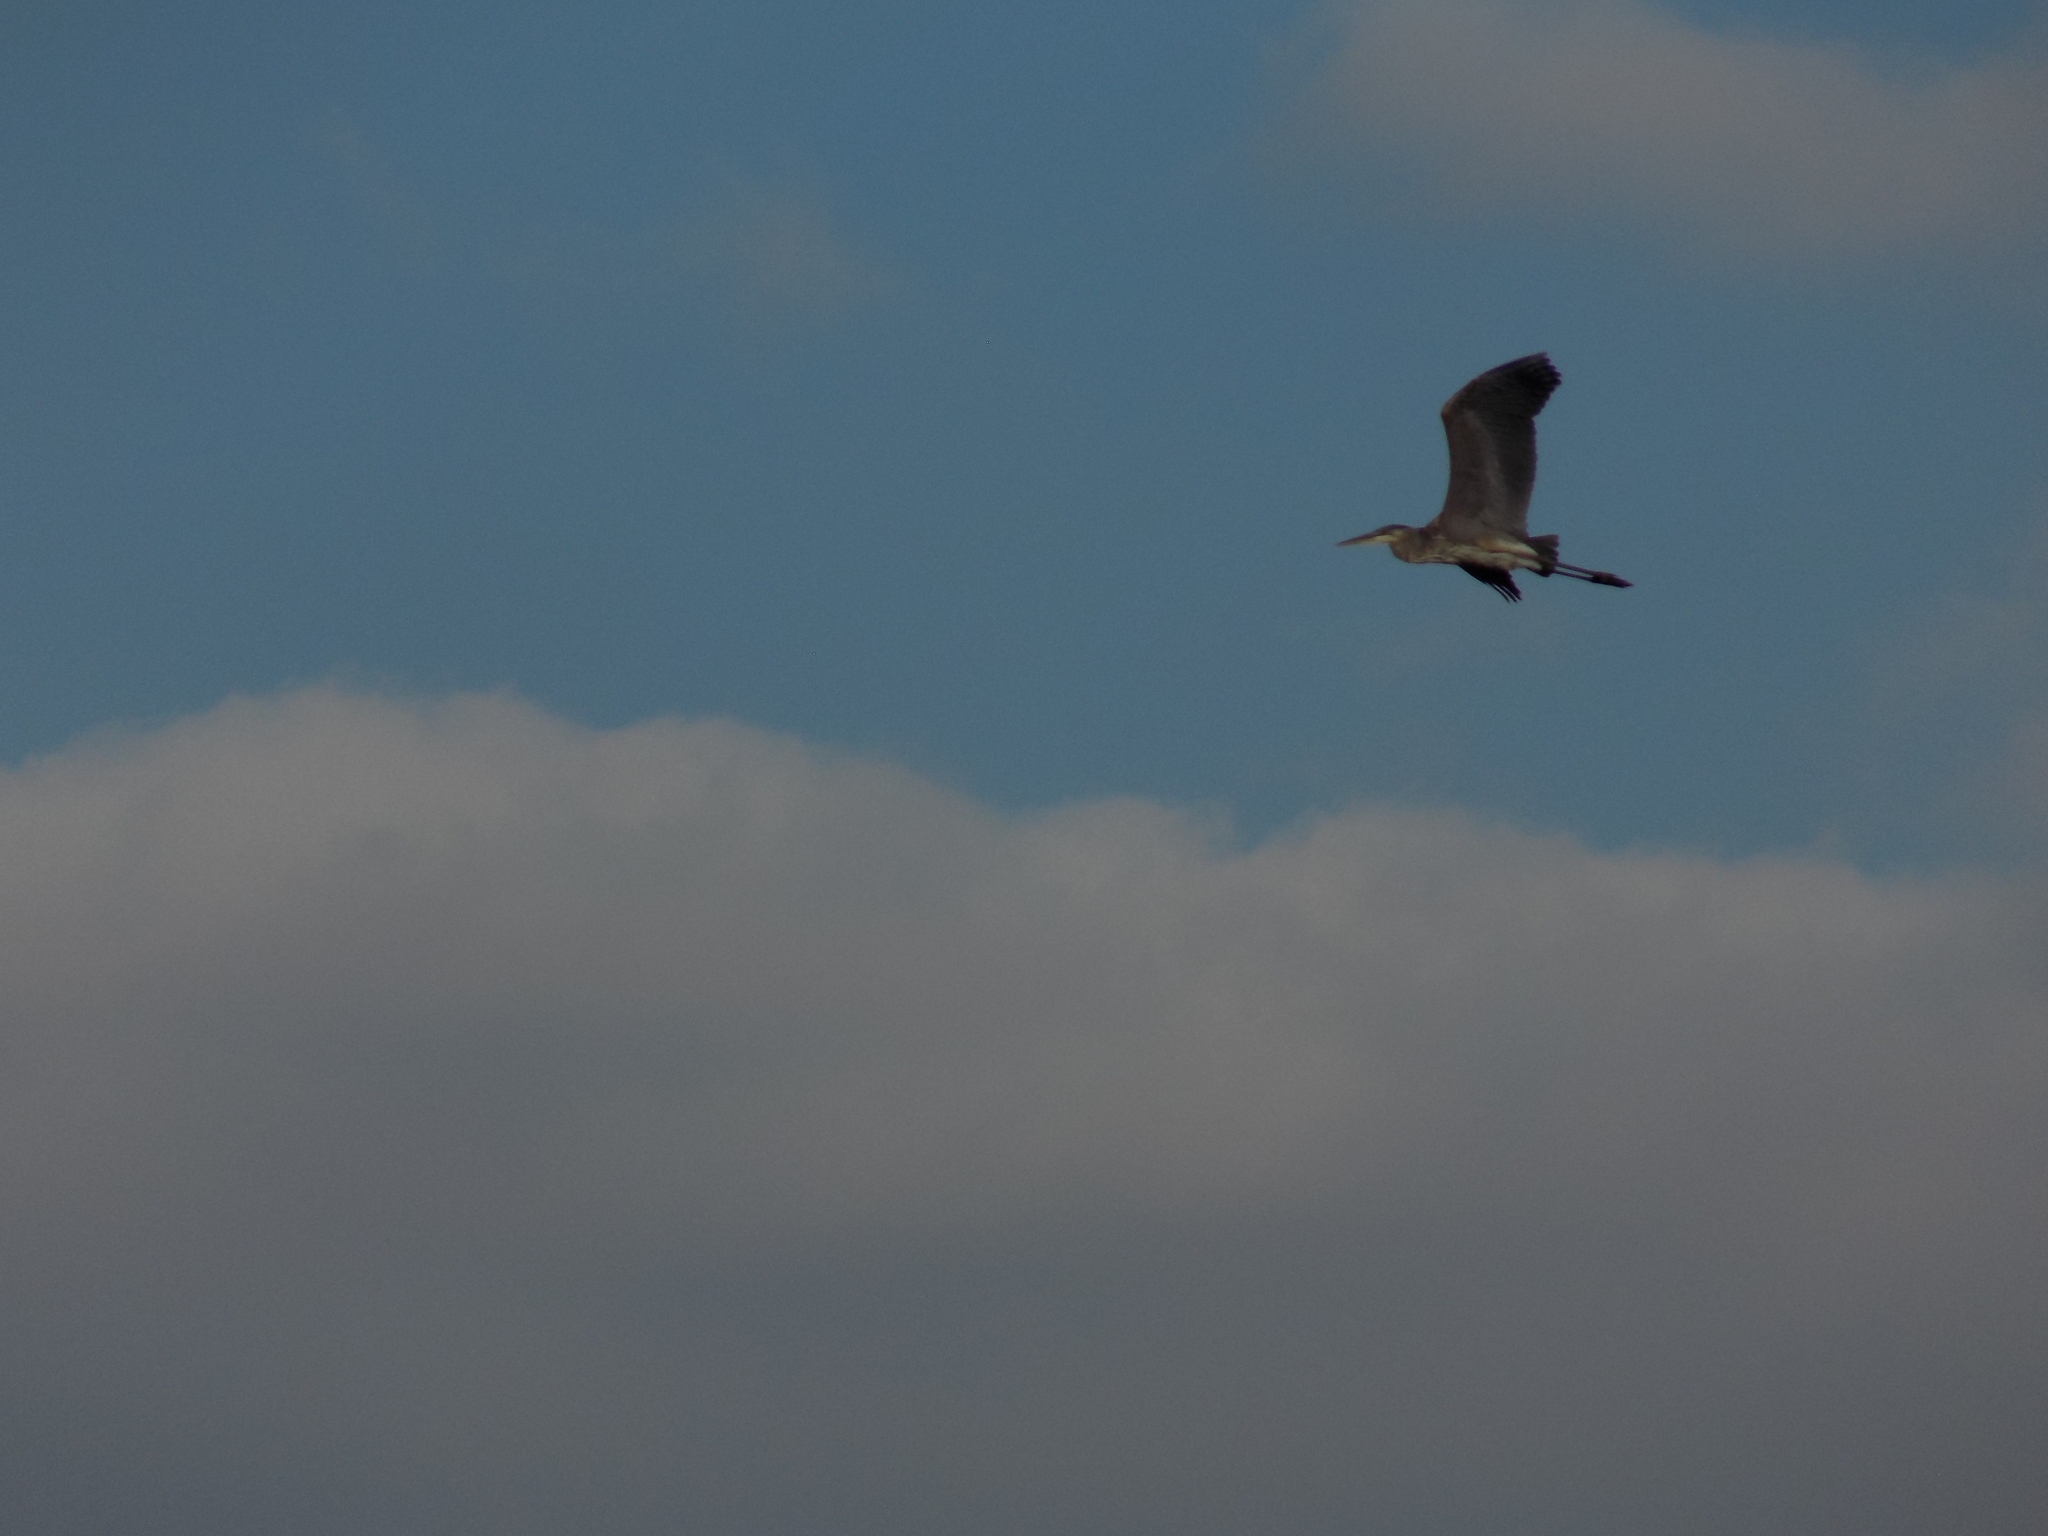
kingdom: Animalia
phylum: Chordata
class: Aves
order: Pelecaniformes
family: Ardeidae
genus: Ardea
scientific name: Ardea herodias
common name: Great blue heron
